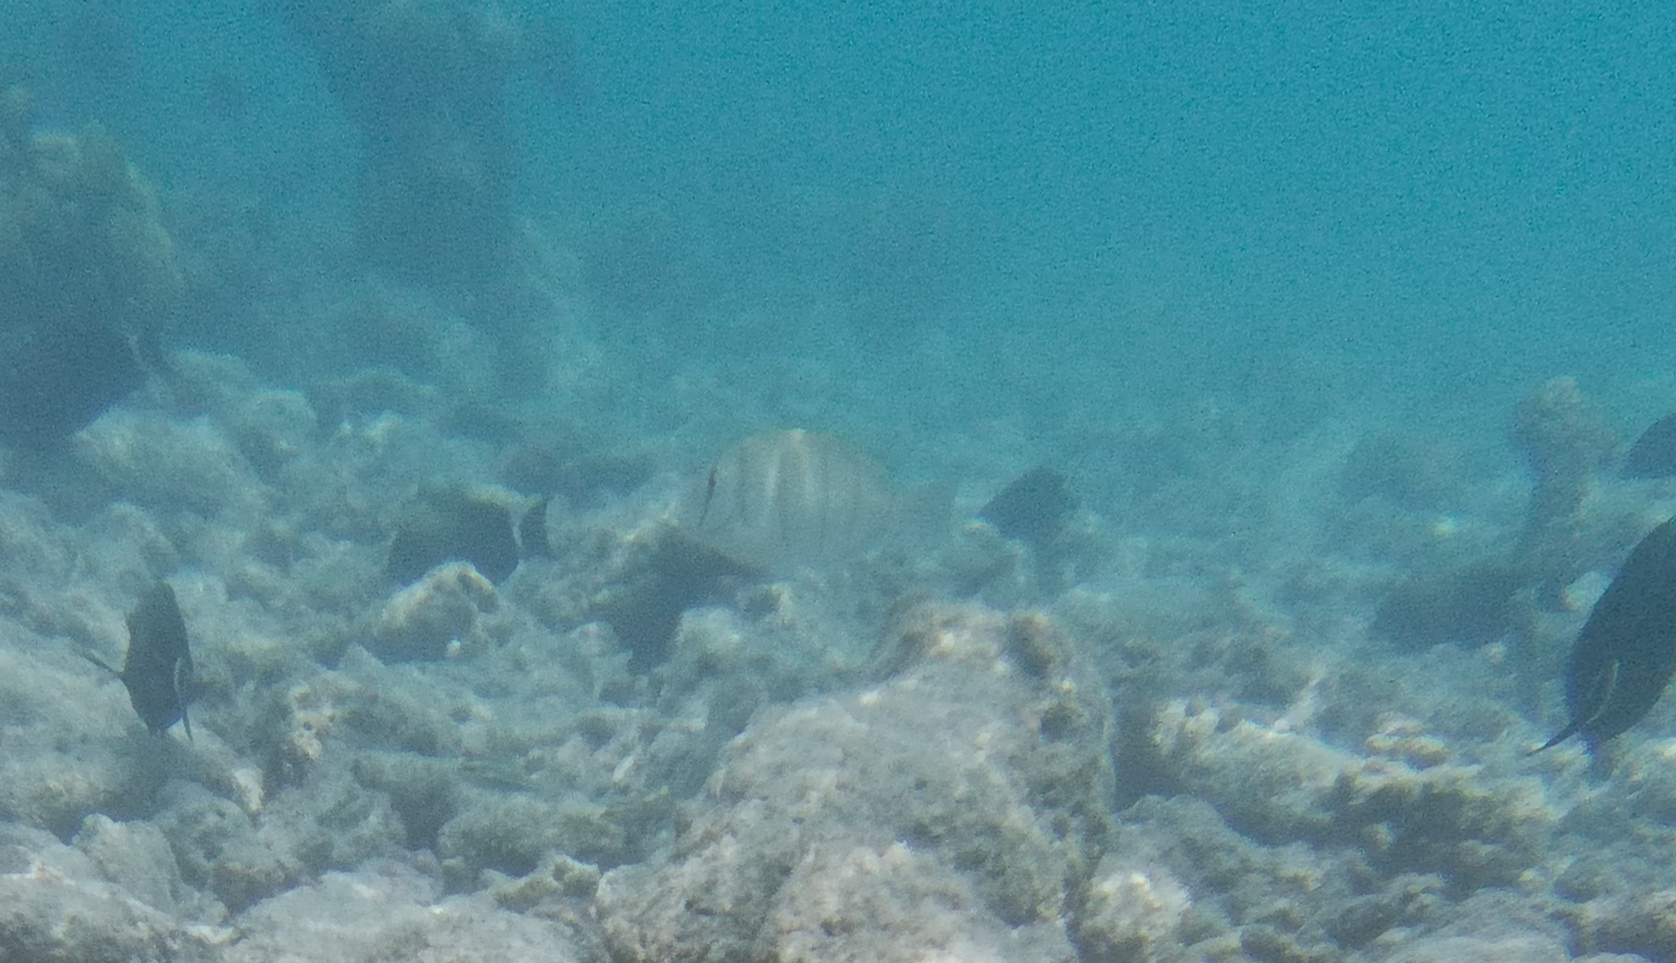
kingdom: Animalia
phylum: Chordata
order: Perciformes
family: Acanthuridae
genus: Acanthurus
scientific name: Acanthurus triostegus
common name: Convict surgeonfish
